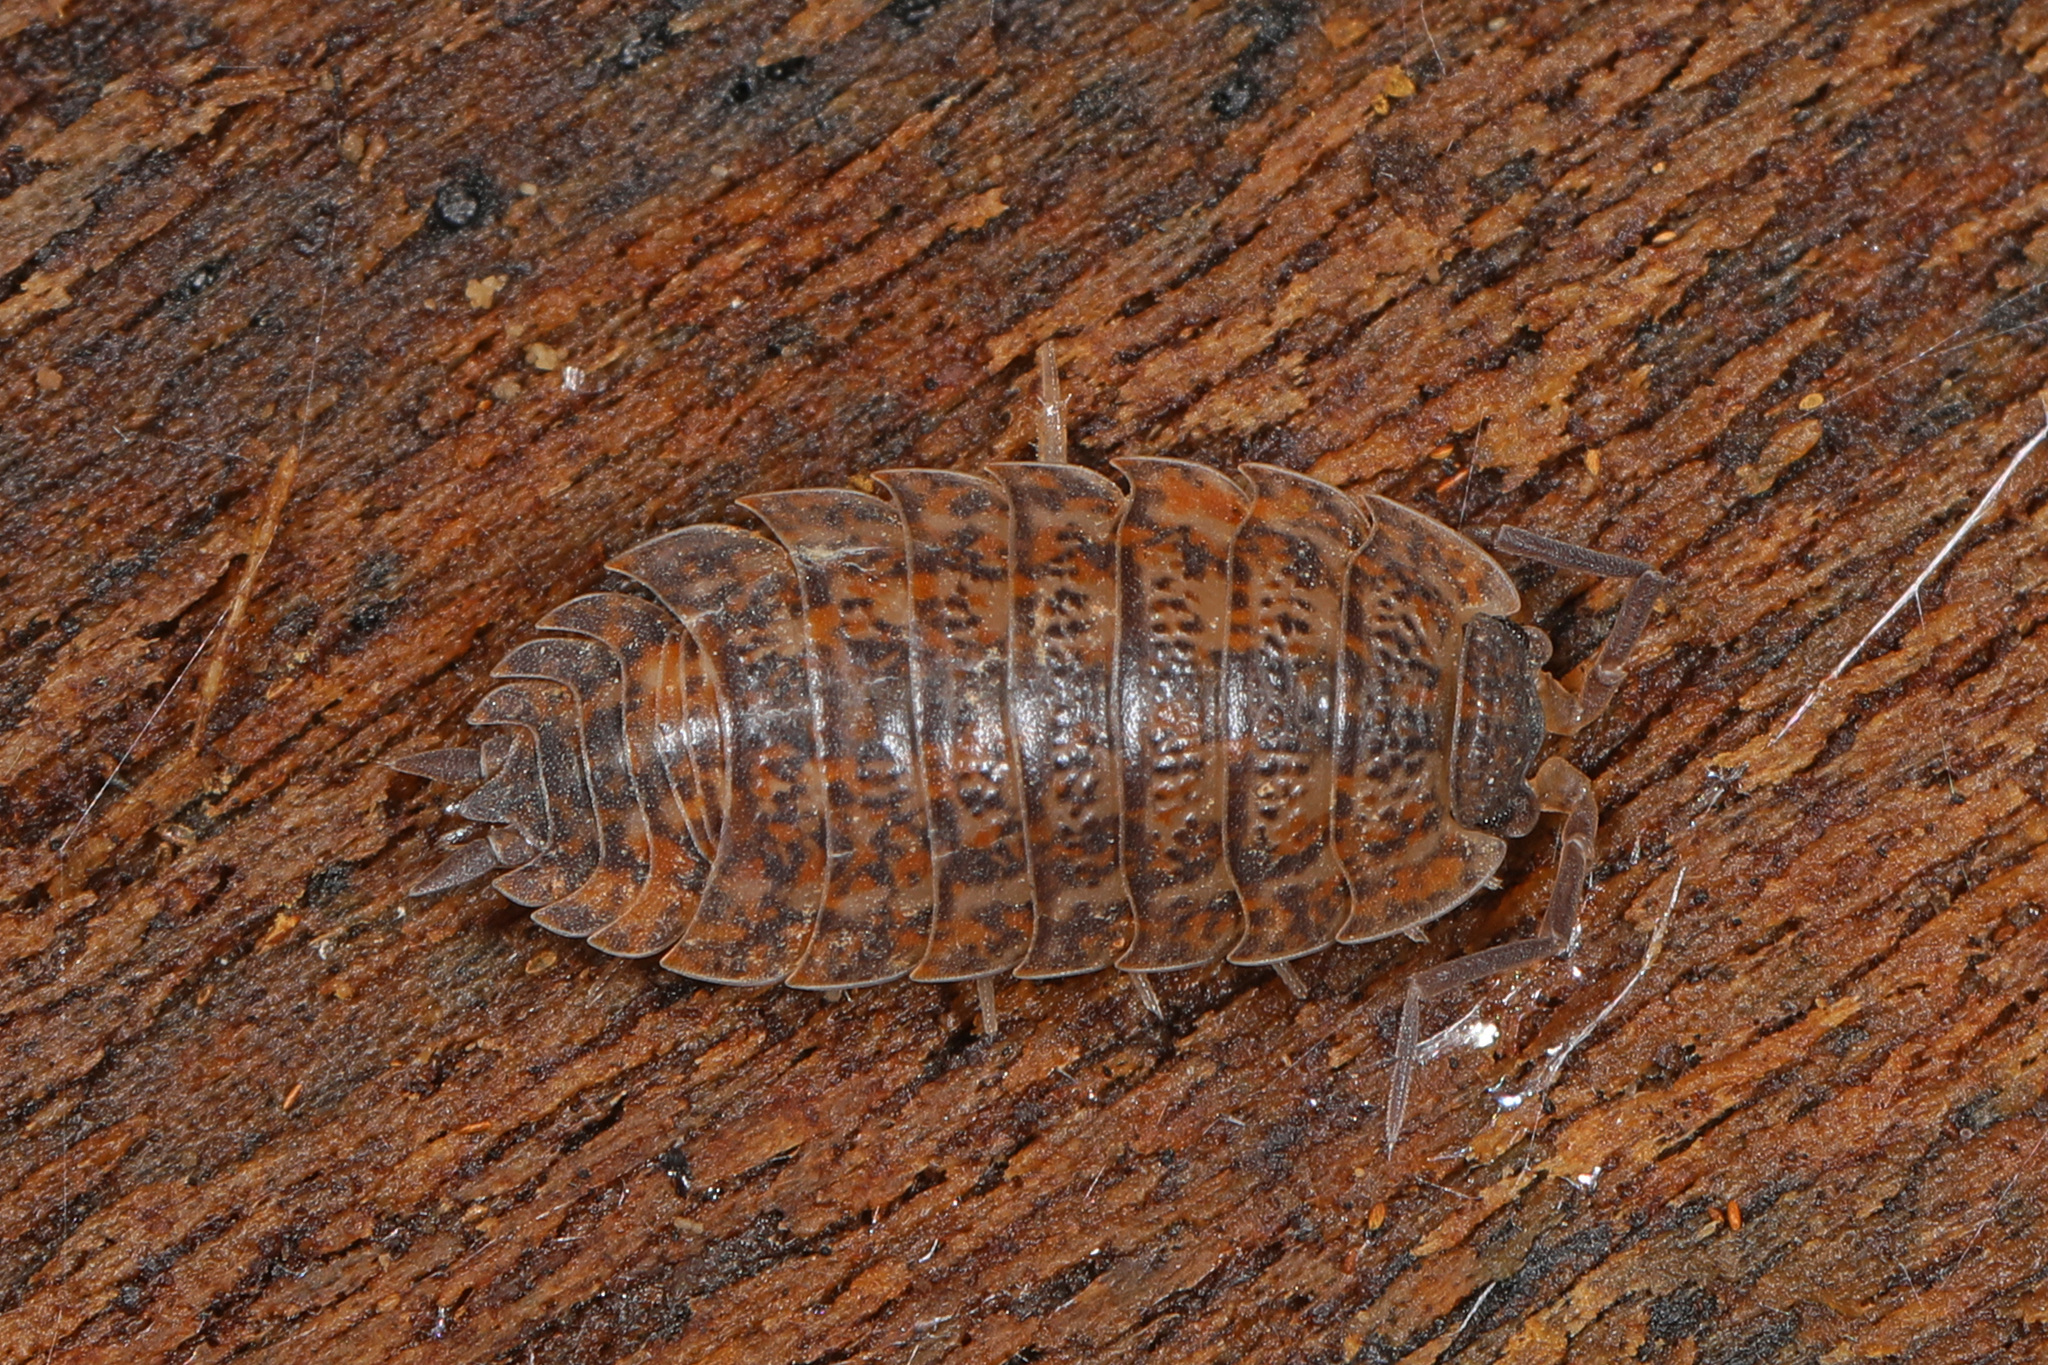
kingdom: Animalia
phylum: Arthropoda
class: Malacostraca
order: Isopoda
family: Trachelipodidae
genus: Trachelipus
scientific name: Trachelipus rathkii
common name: Isopod
